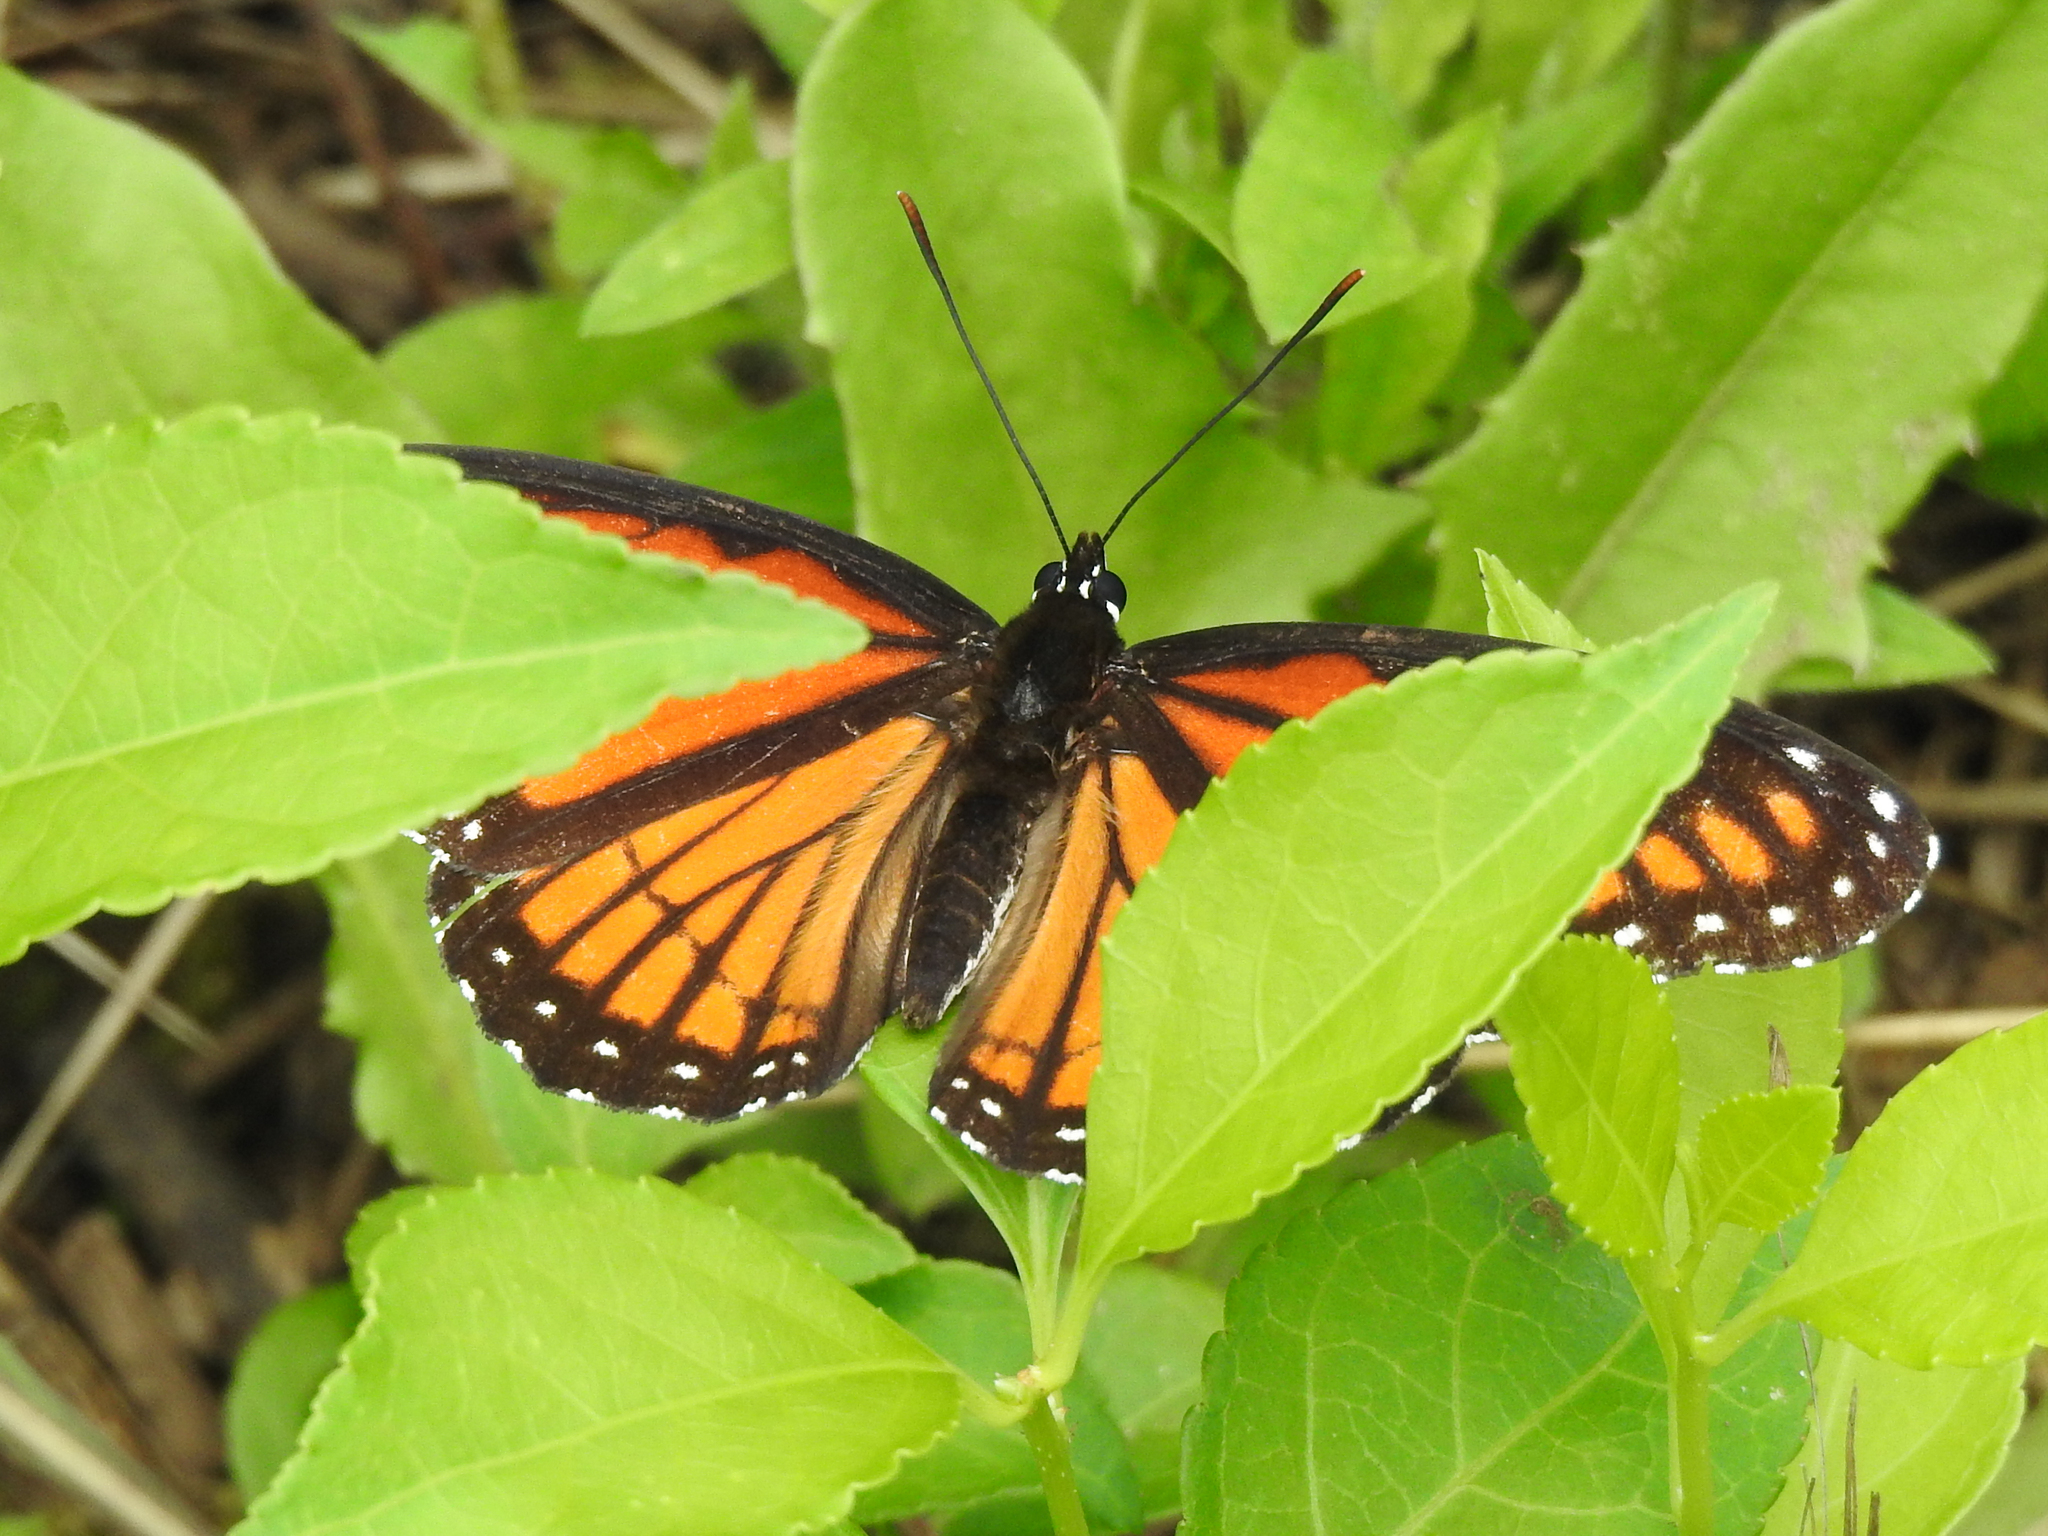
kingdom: Animalia
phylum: Arthropoda
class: Insecta
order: Lepidoptera
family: Nymphalidae
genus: Limenitis
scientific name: Limenitis archippus
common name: Viceroy
